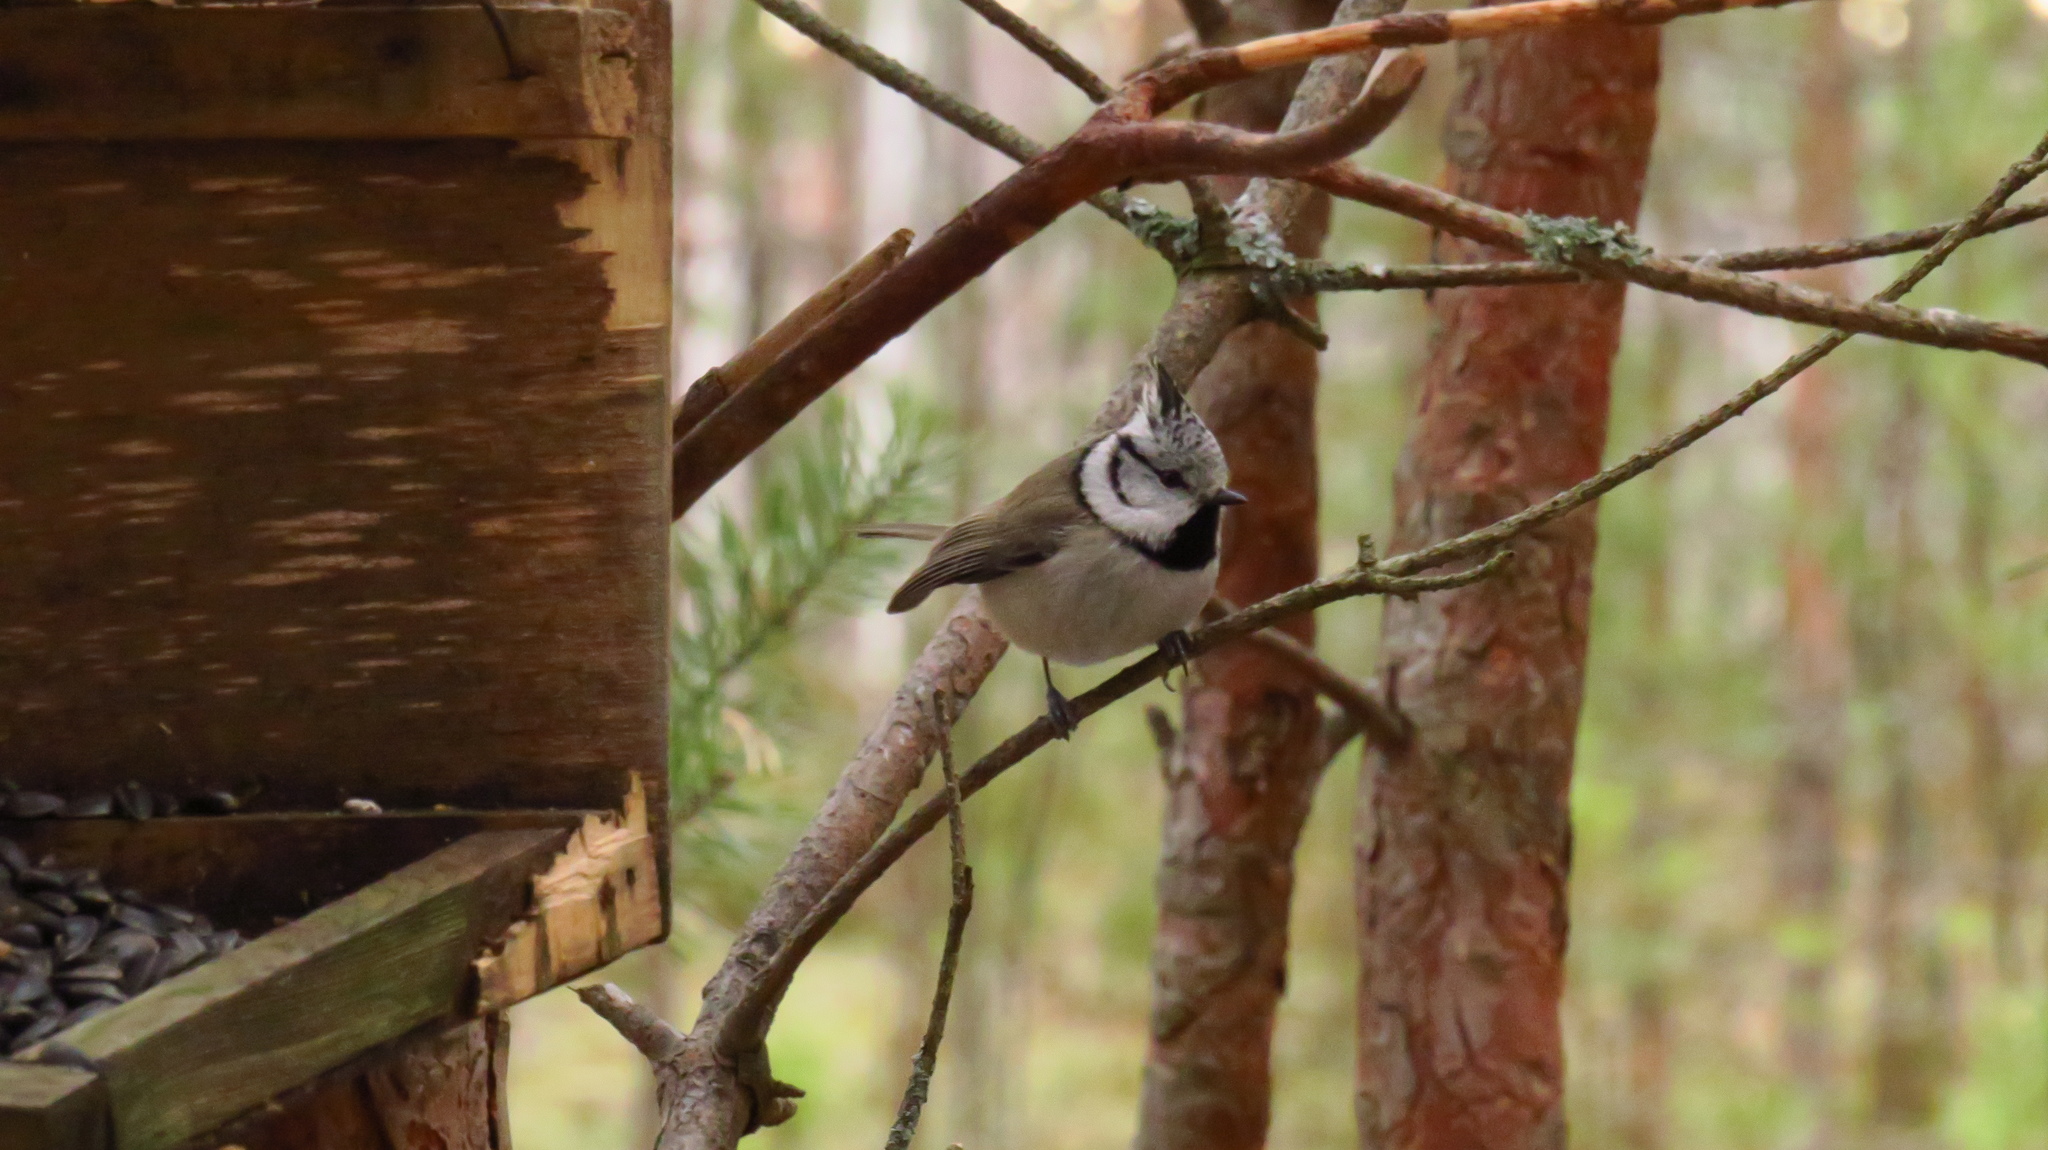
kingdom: Animalia
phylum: Chordata
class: Aves
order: Passeriformes
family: Paridae
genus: Lophophanes
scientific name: Lophophanes cristatus
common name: European crested tit
